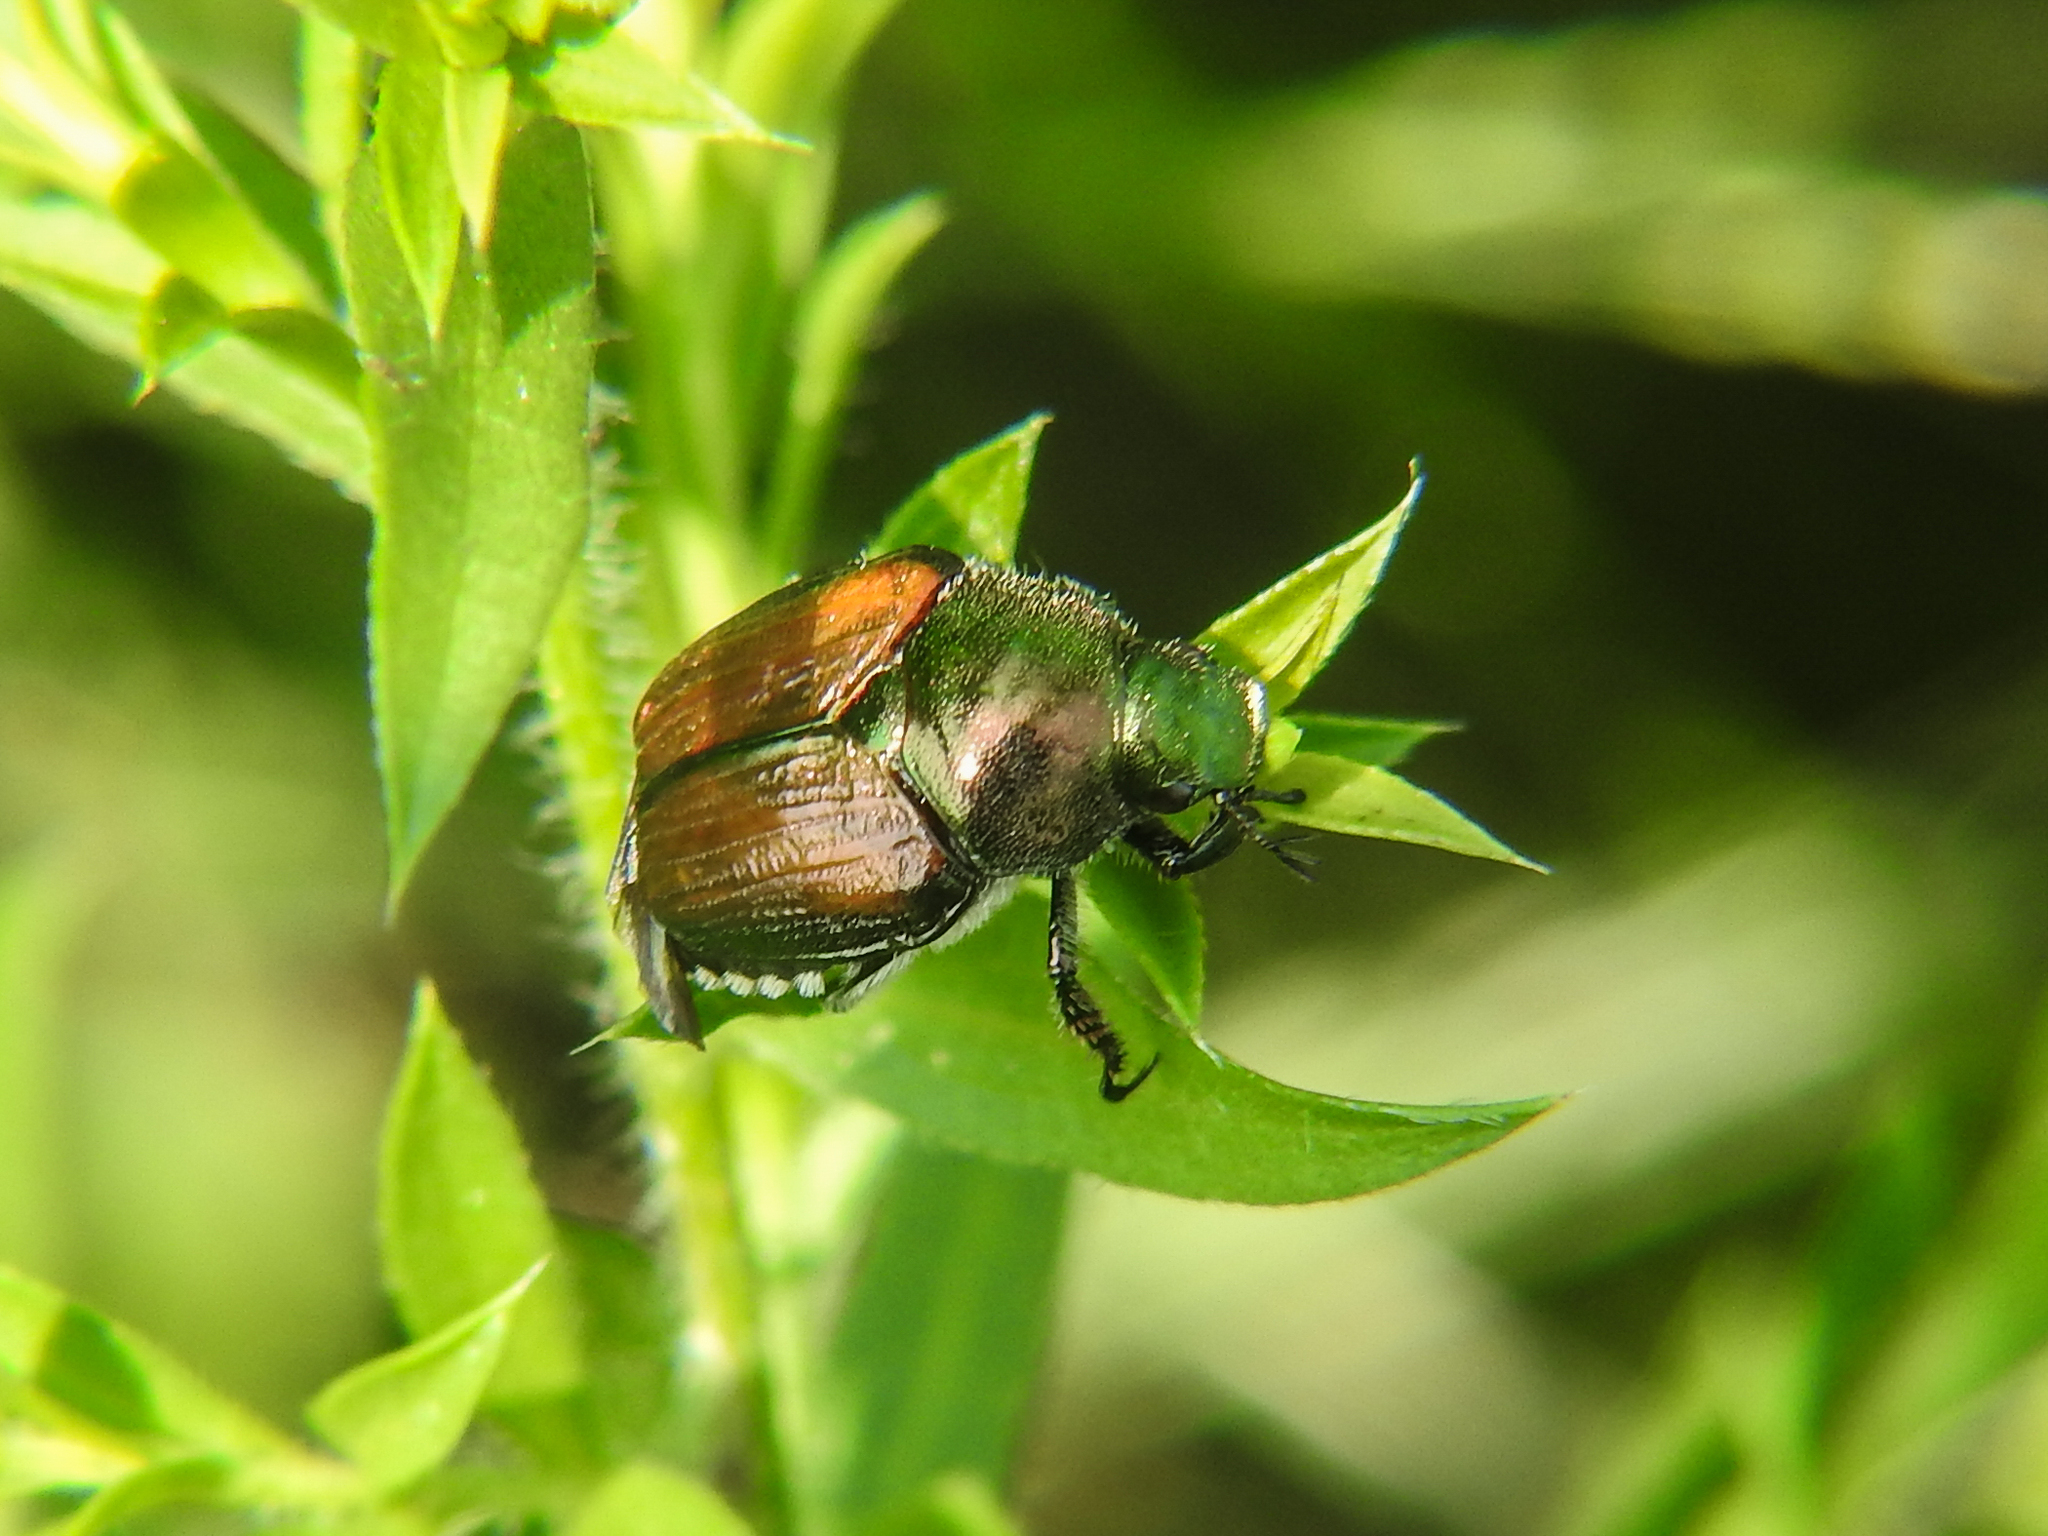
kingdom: Animalia
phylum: Arthropoda
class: Insecta
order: Coleoptera
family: Scarabaeidae
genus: Popillia
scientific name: Popillia japonica
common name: Japanese beetle
